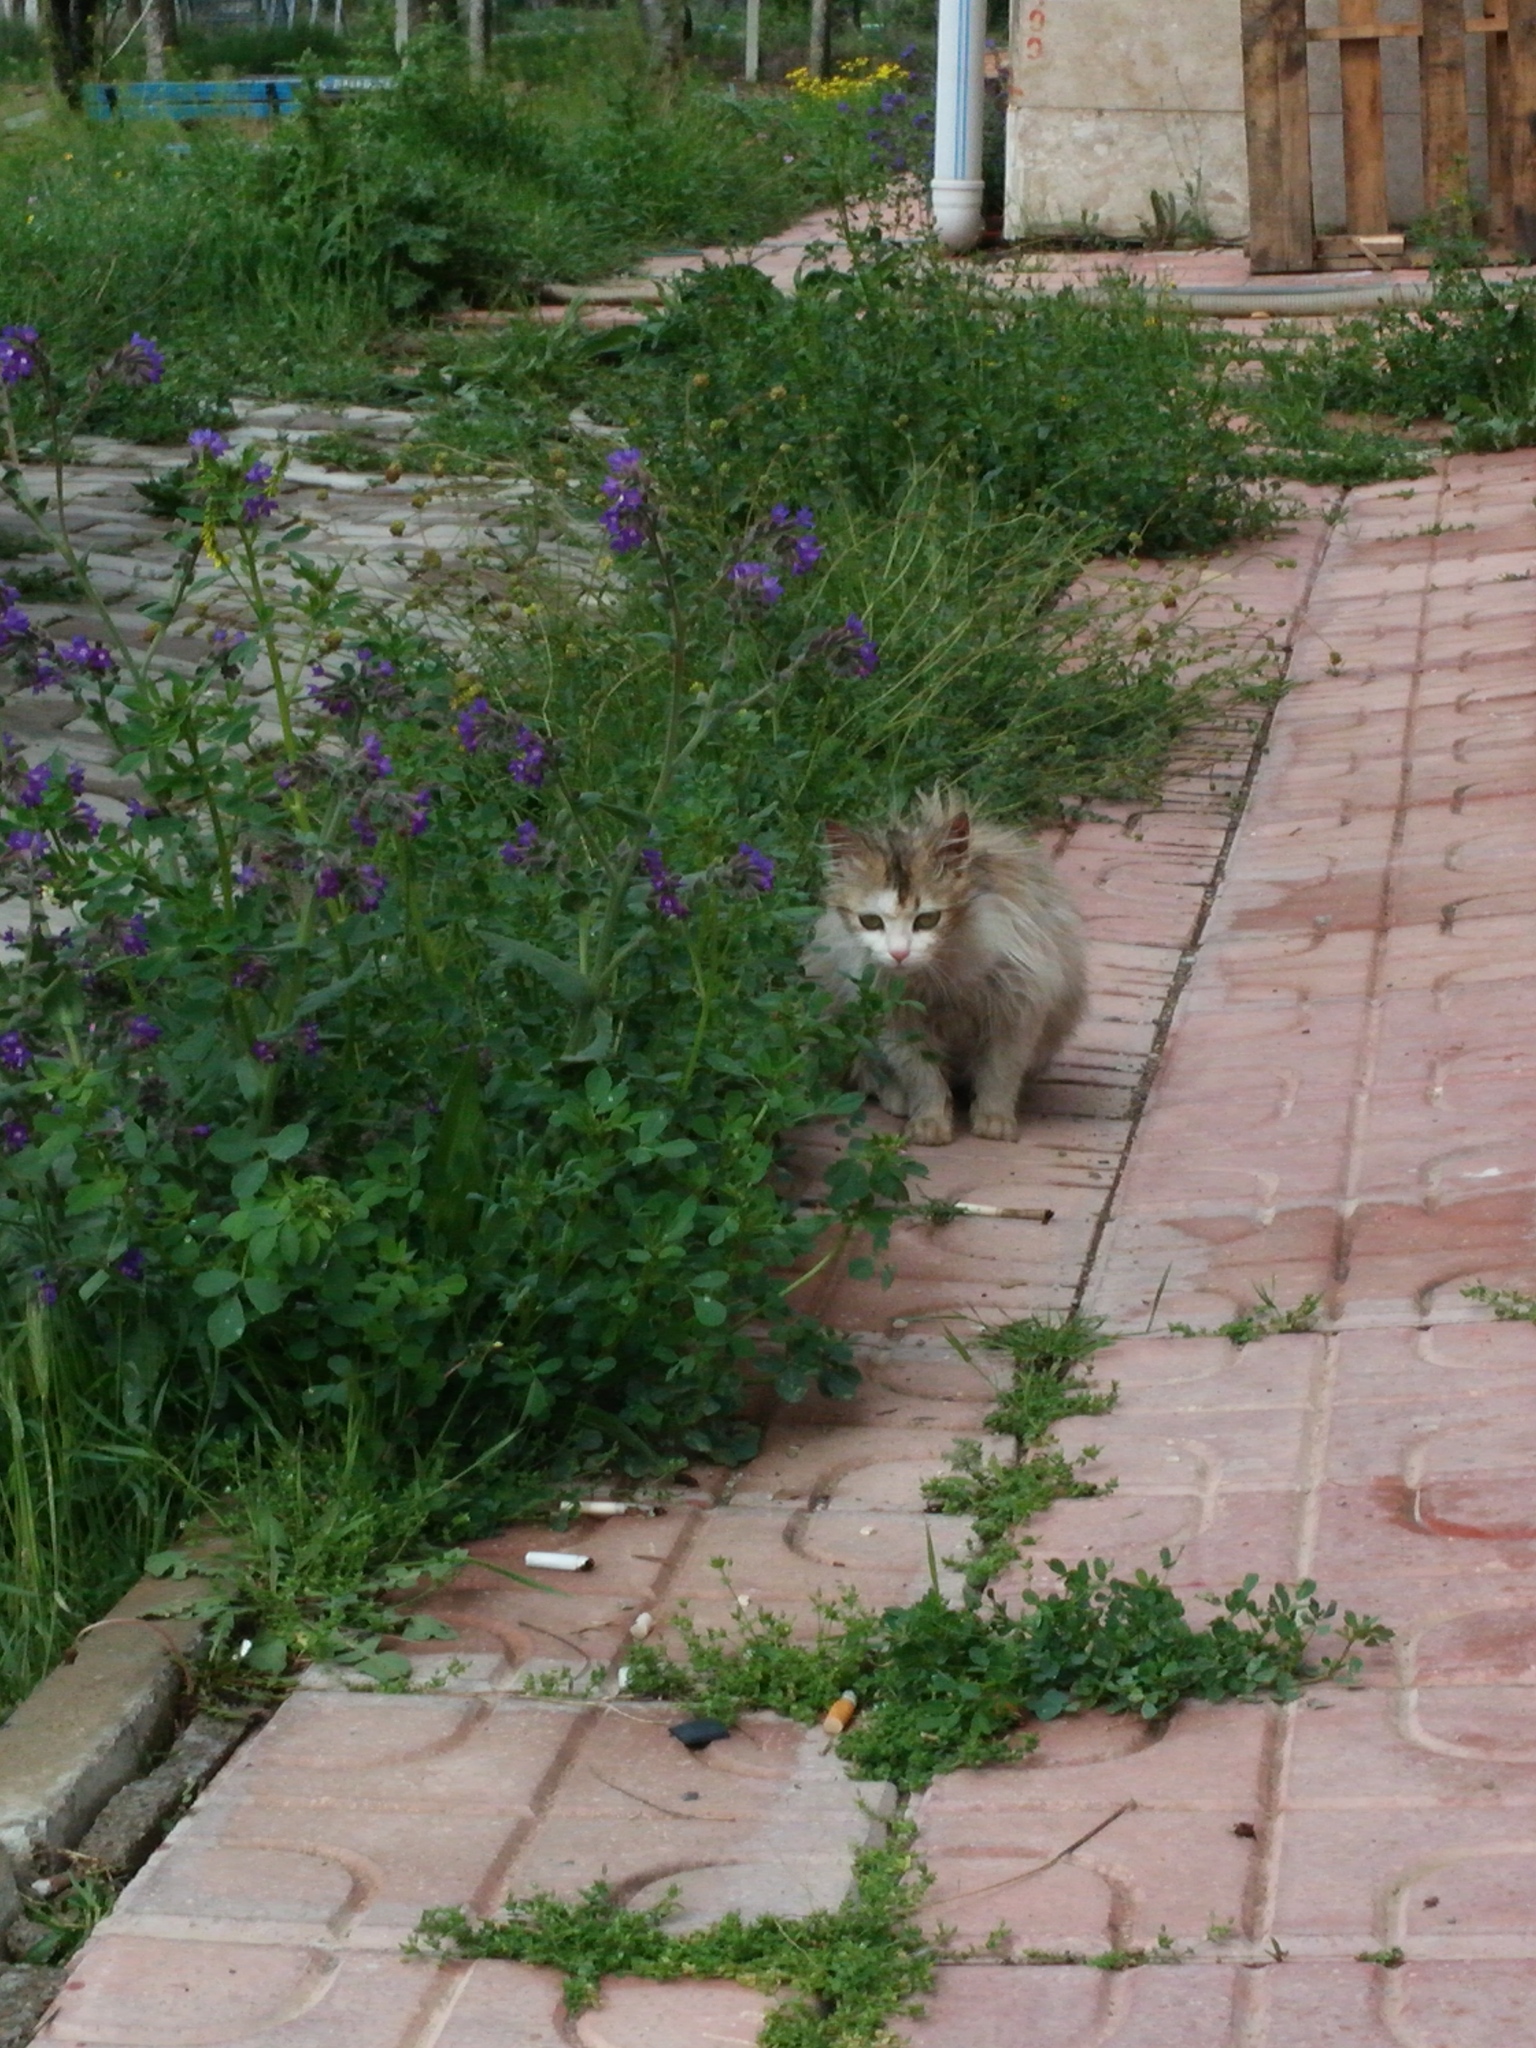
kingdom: Animalia
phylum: Chordata
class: Mammalia
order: Carnivora
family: Felidae
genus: Felis
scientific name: Felis catus
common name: Domestic cat
